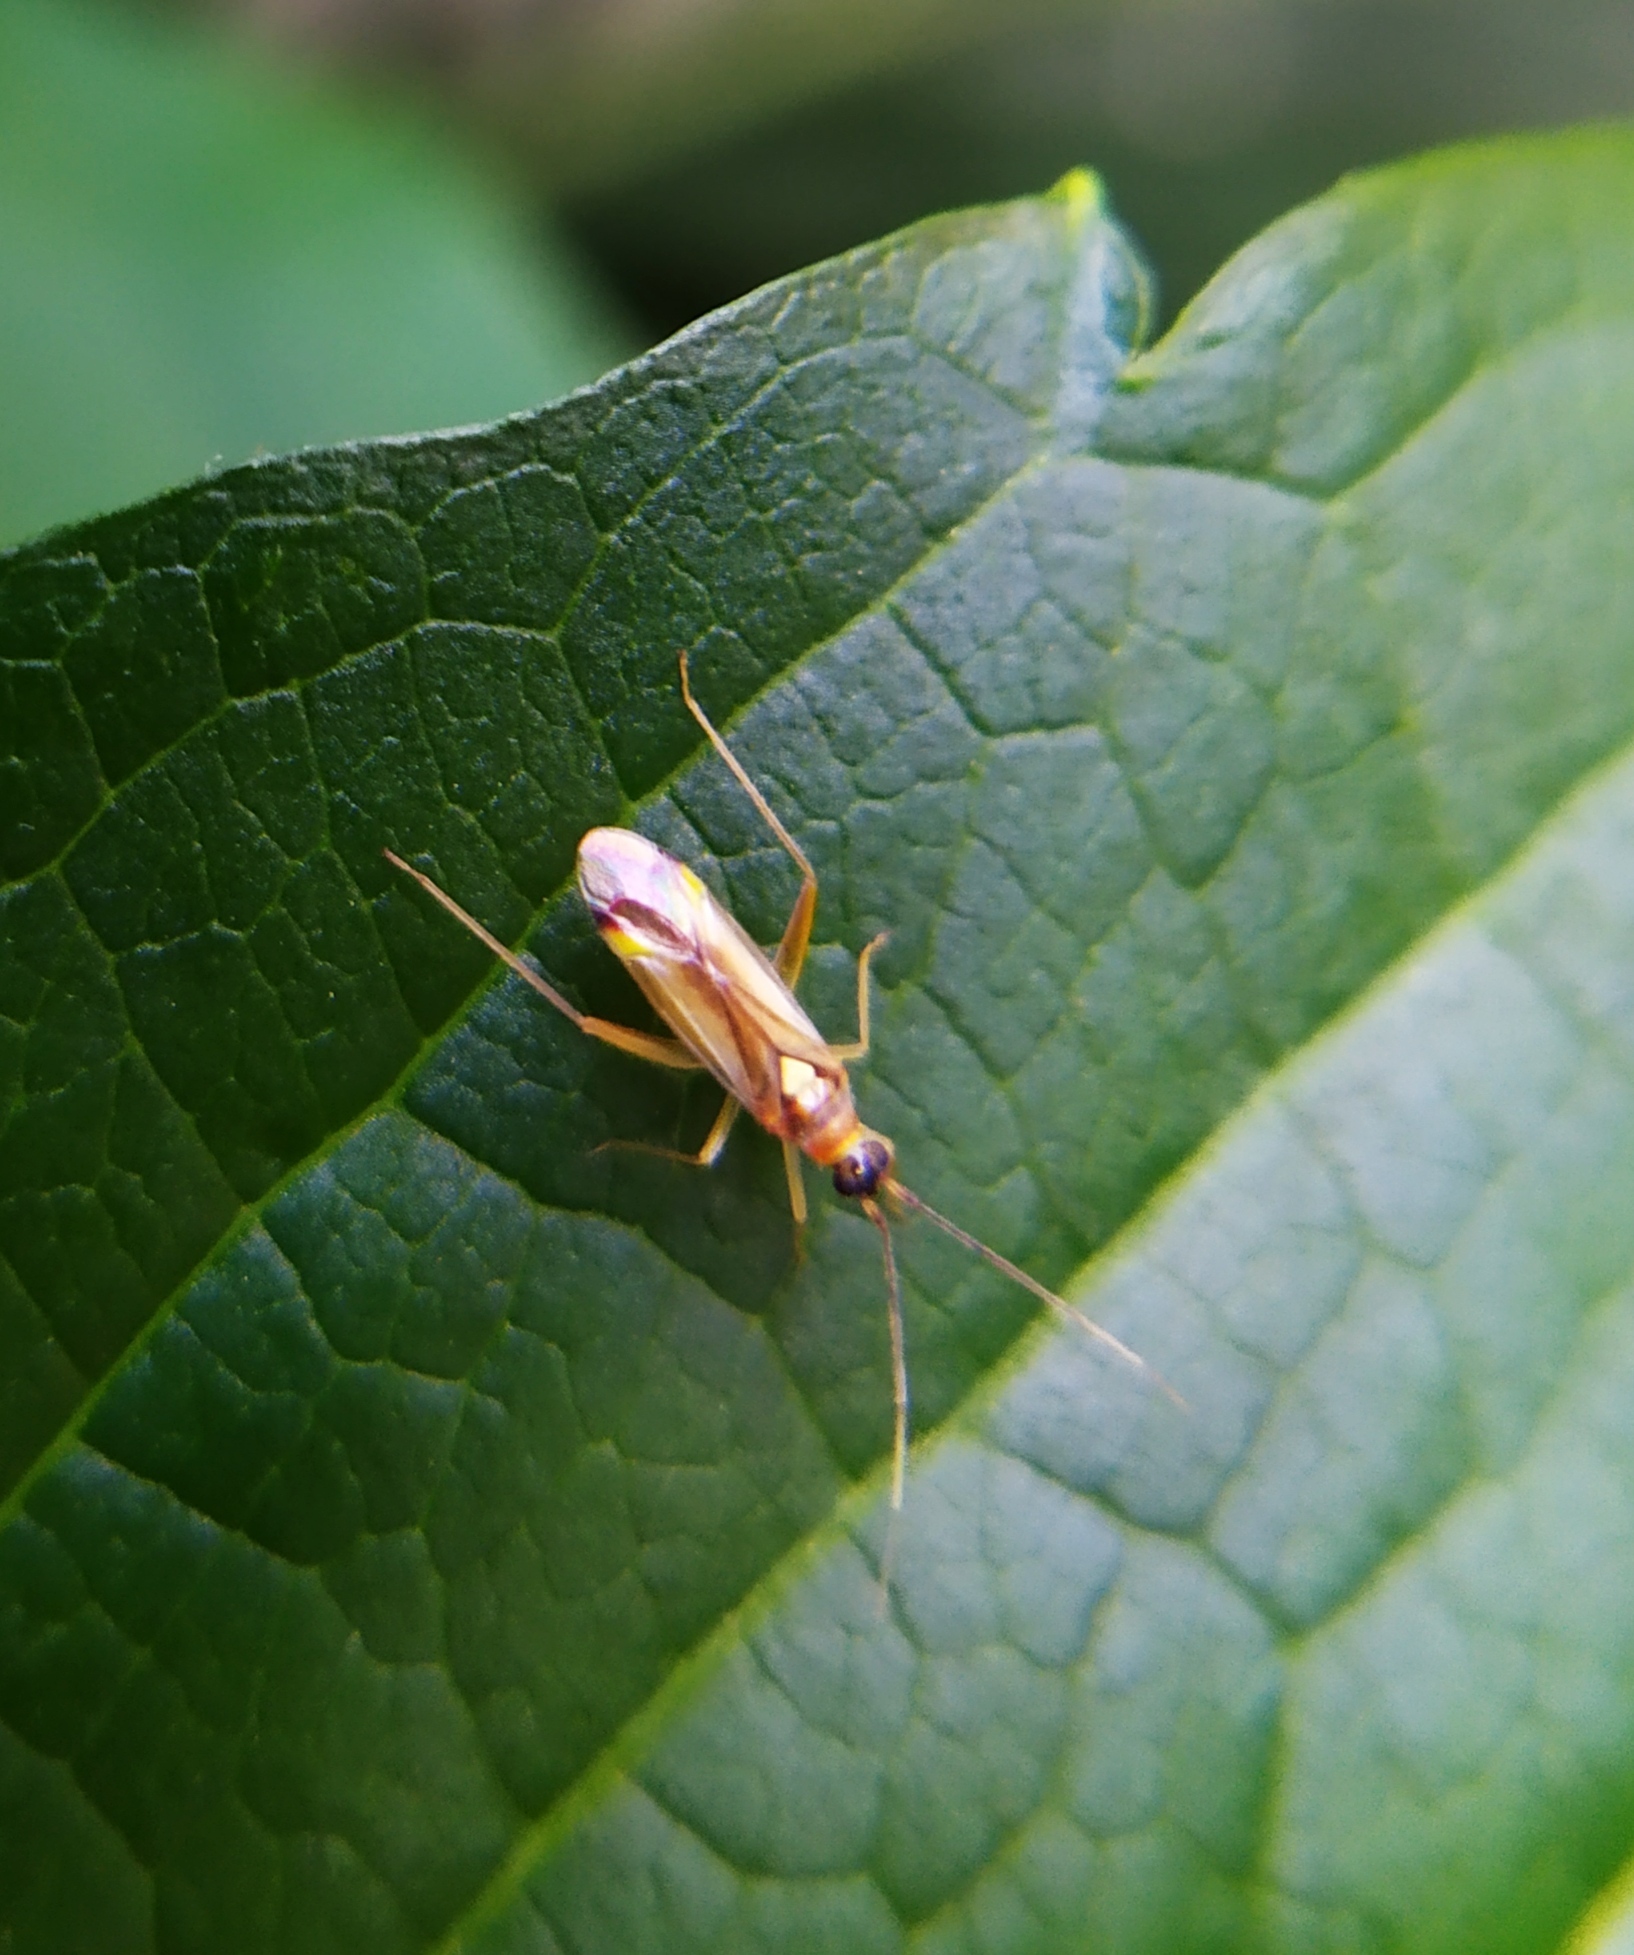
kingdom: Animalia
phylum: Arthropoda
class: Insecta
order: Hemiptera
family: Miridae
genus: Campyloneura
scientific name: Campyloneura virgula
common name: Predatory bug
